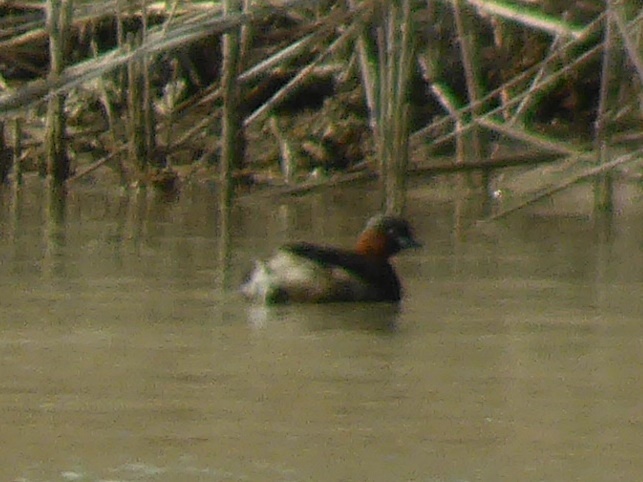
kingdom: Animalia
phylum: Chordata
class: Aves
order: Podicipediformes
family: Podicipedidae
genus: Tachybaptus
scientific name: Tachybaptus ruficollis
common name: Little grebe
